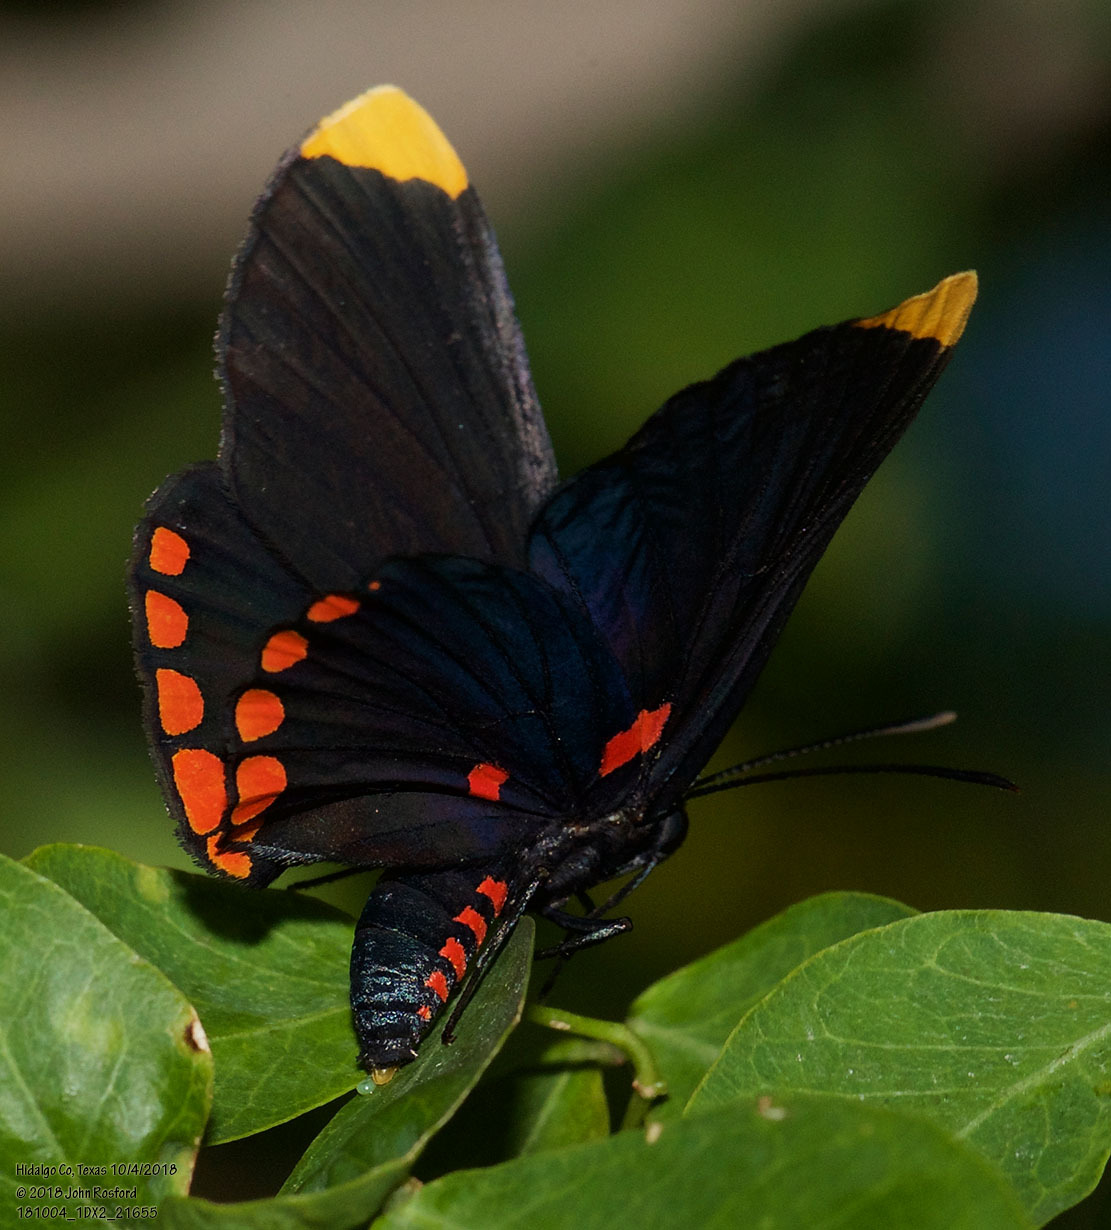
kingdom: Animalia
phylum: Arthropoda
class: Insecta
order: Lepidoptera
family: Lycaenidae
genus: Melanis
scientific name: Melanis pixe
